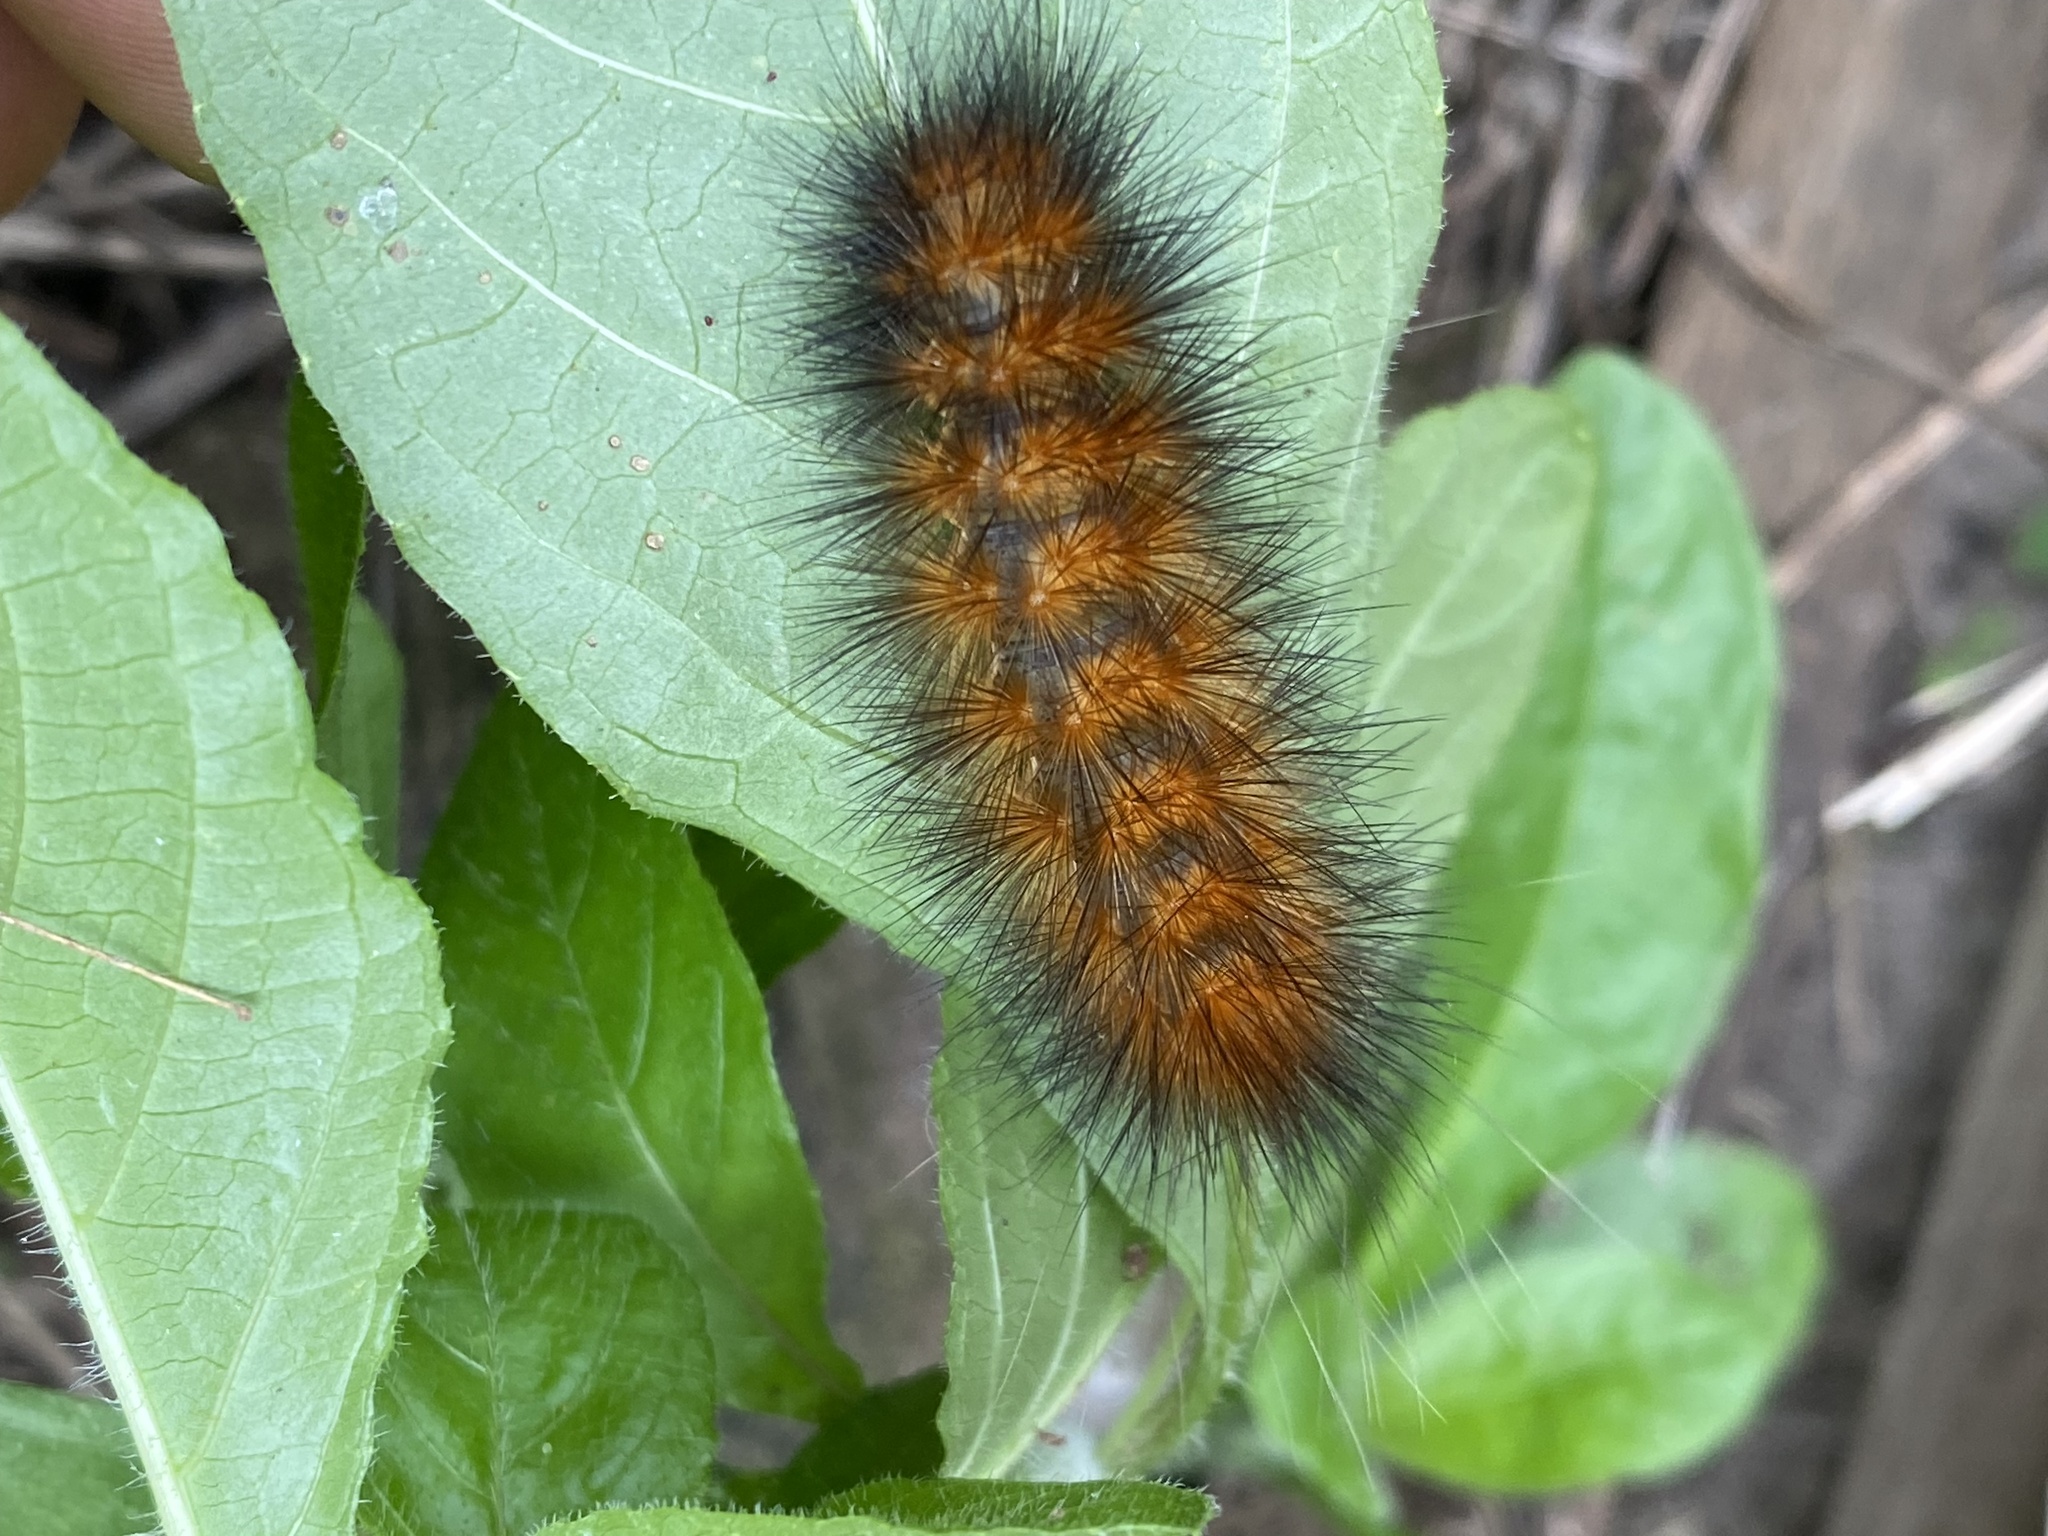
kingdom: Animalia
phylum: Arthropoda
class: Insecta
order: Lepidoptera
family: Erebidae
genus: Spilosoma
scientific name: Spilosoma virginica
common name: Virginia tiger moth
